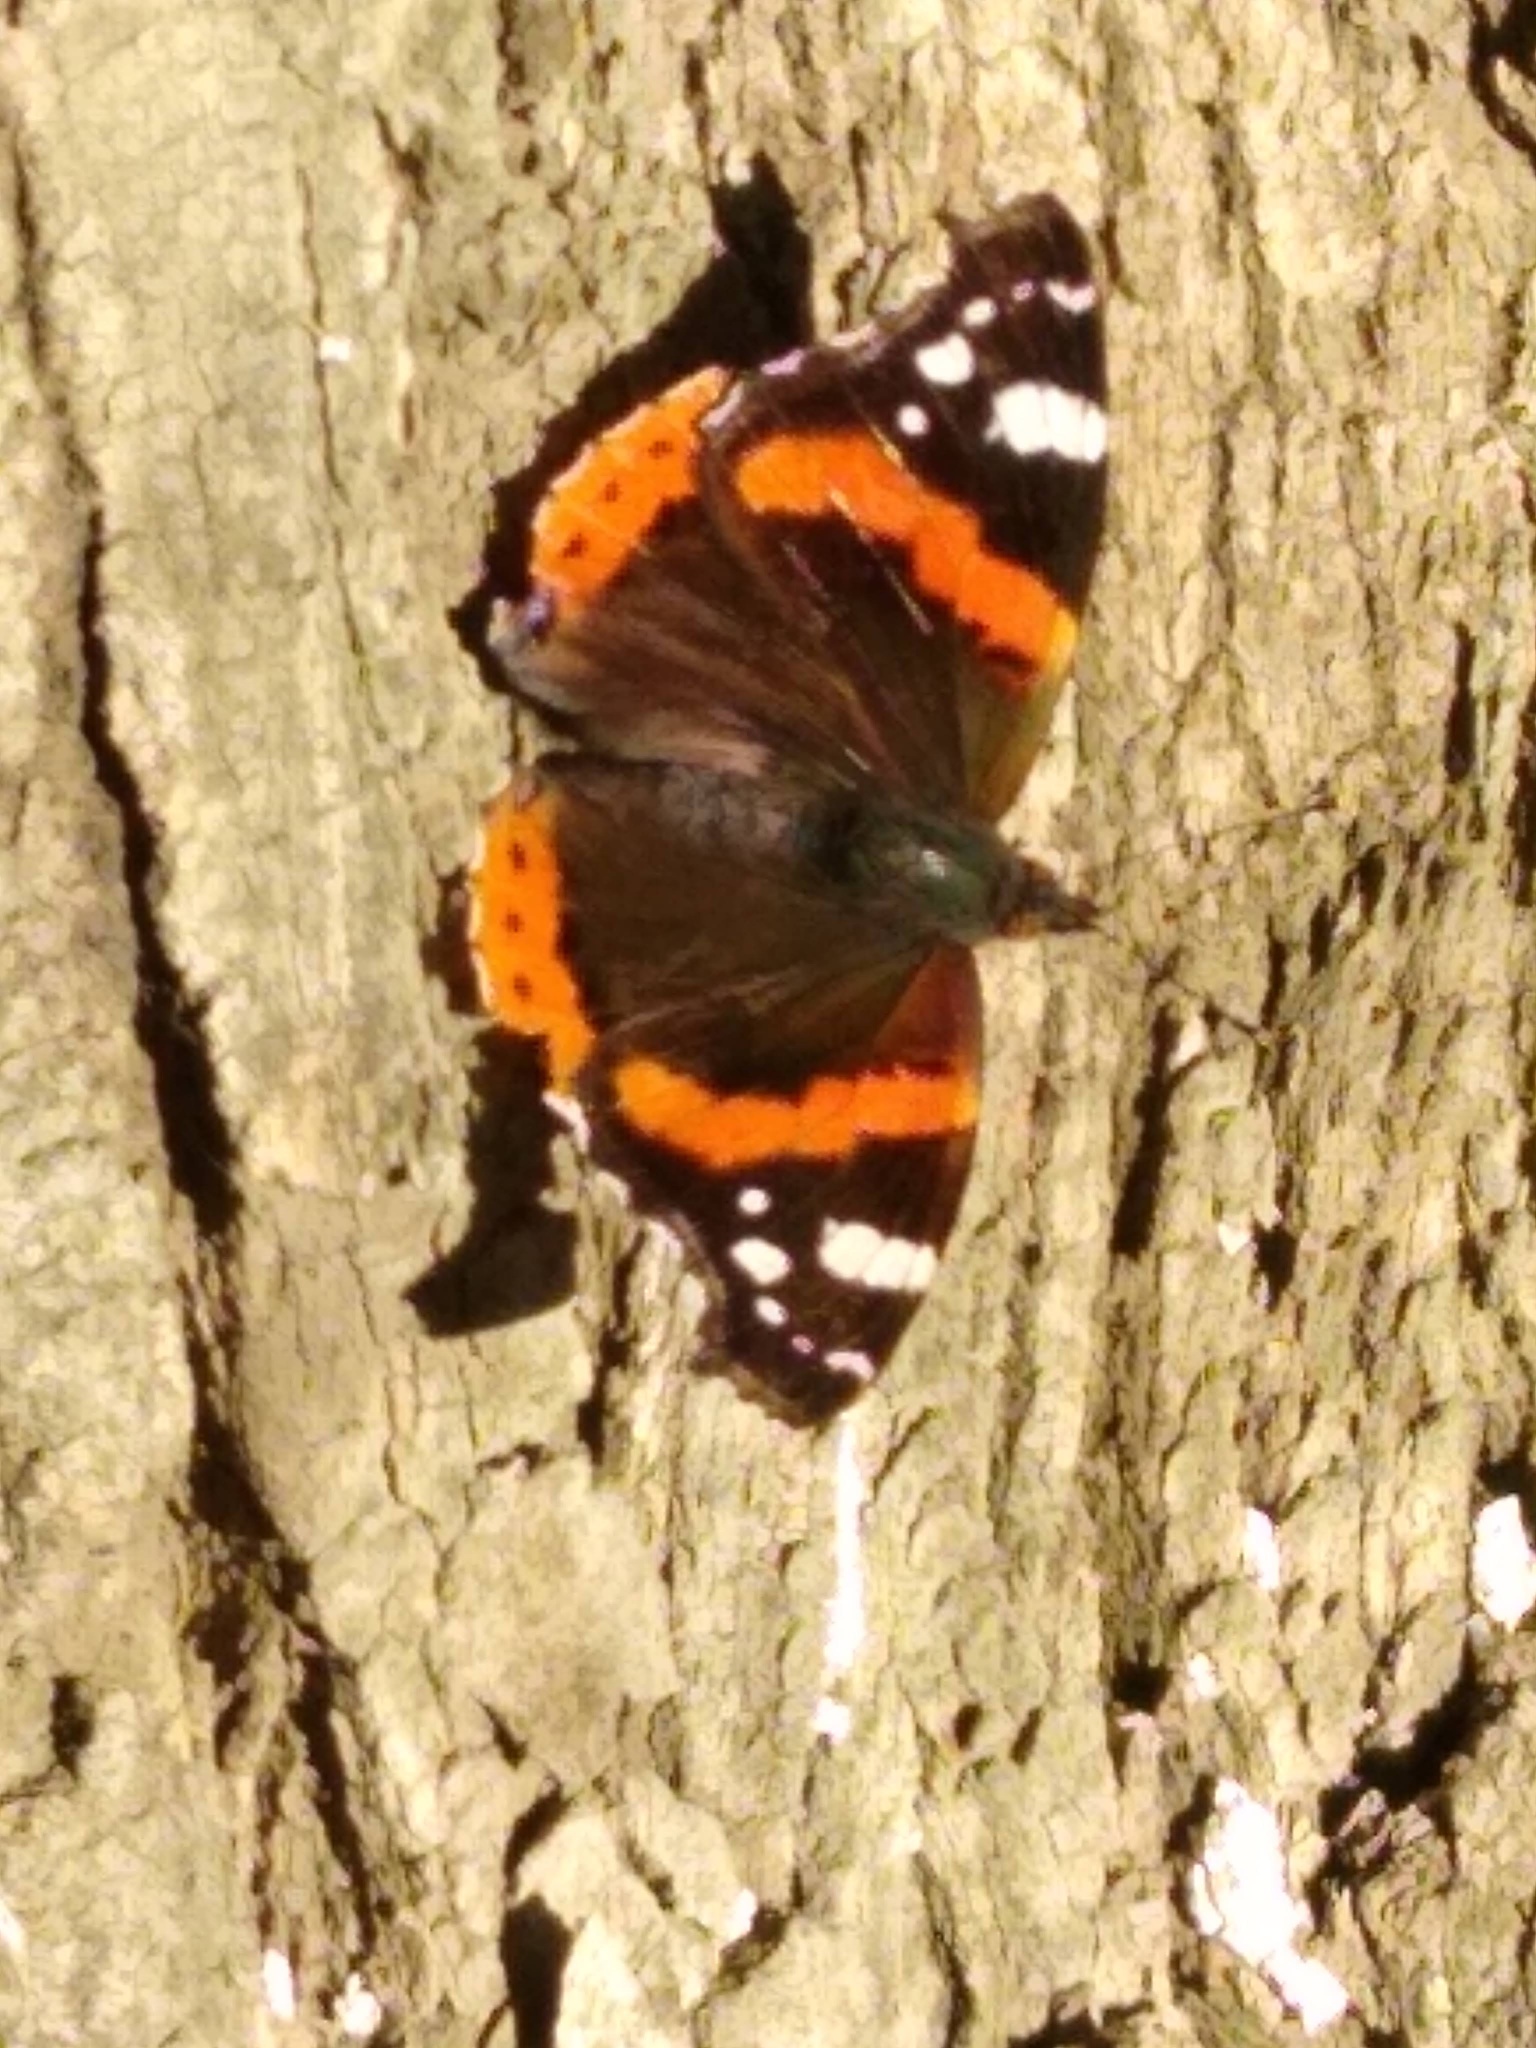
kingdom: Animalia
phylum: Arthropoda
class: Insecta
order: Lepidoptera
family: Nymphalidae
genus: Vanessa
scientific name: Vanessa atalanta
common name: Red admiral
